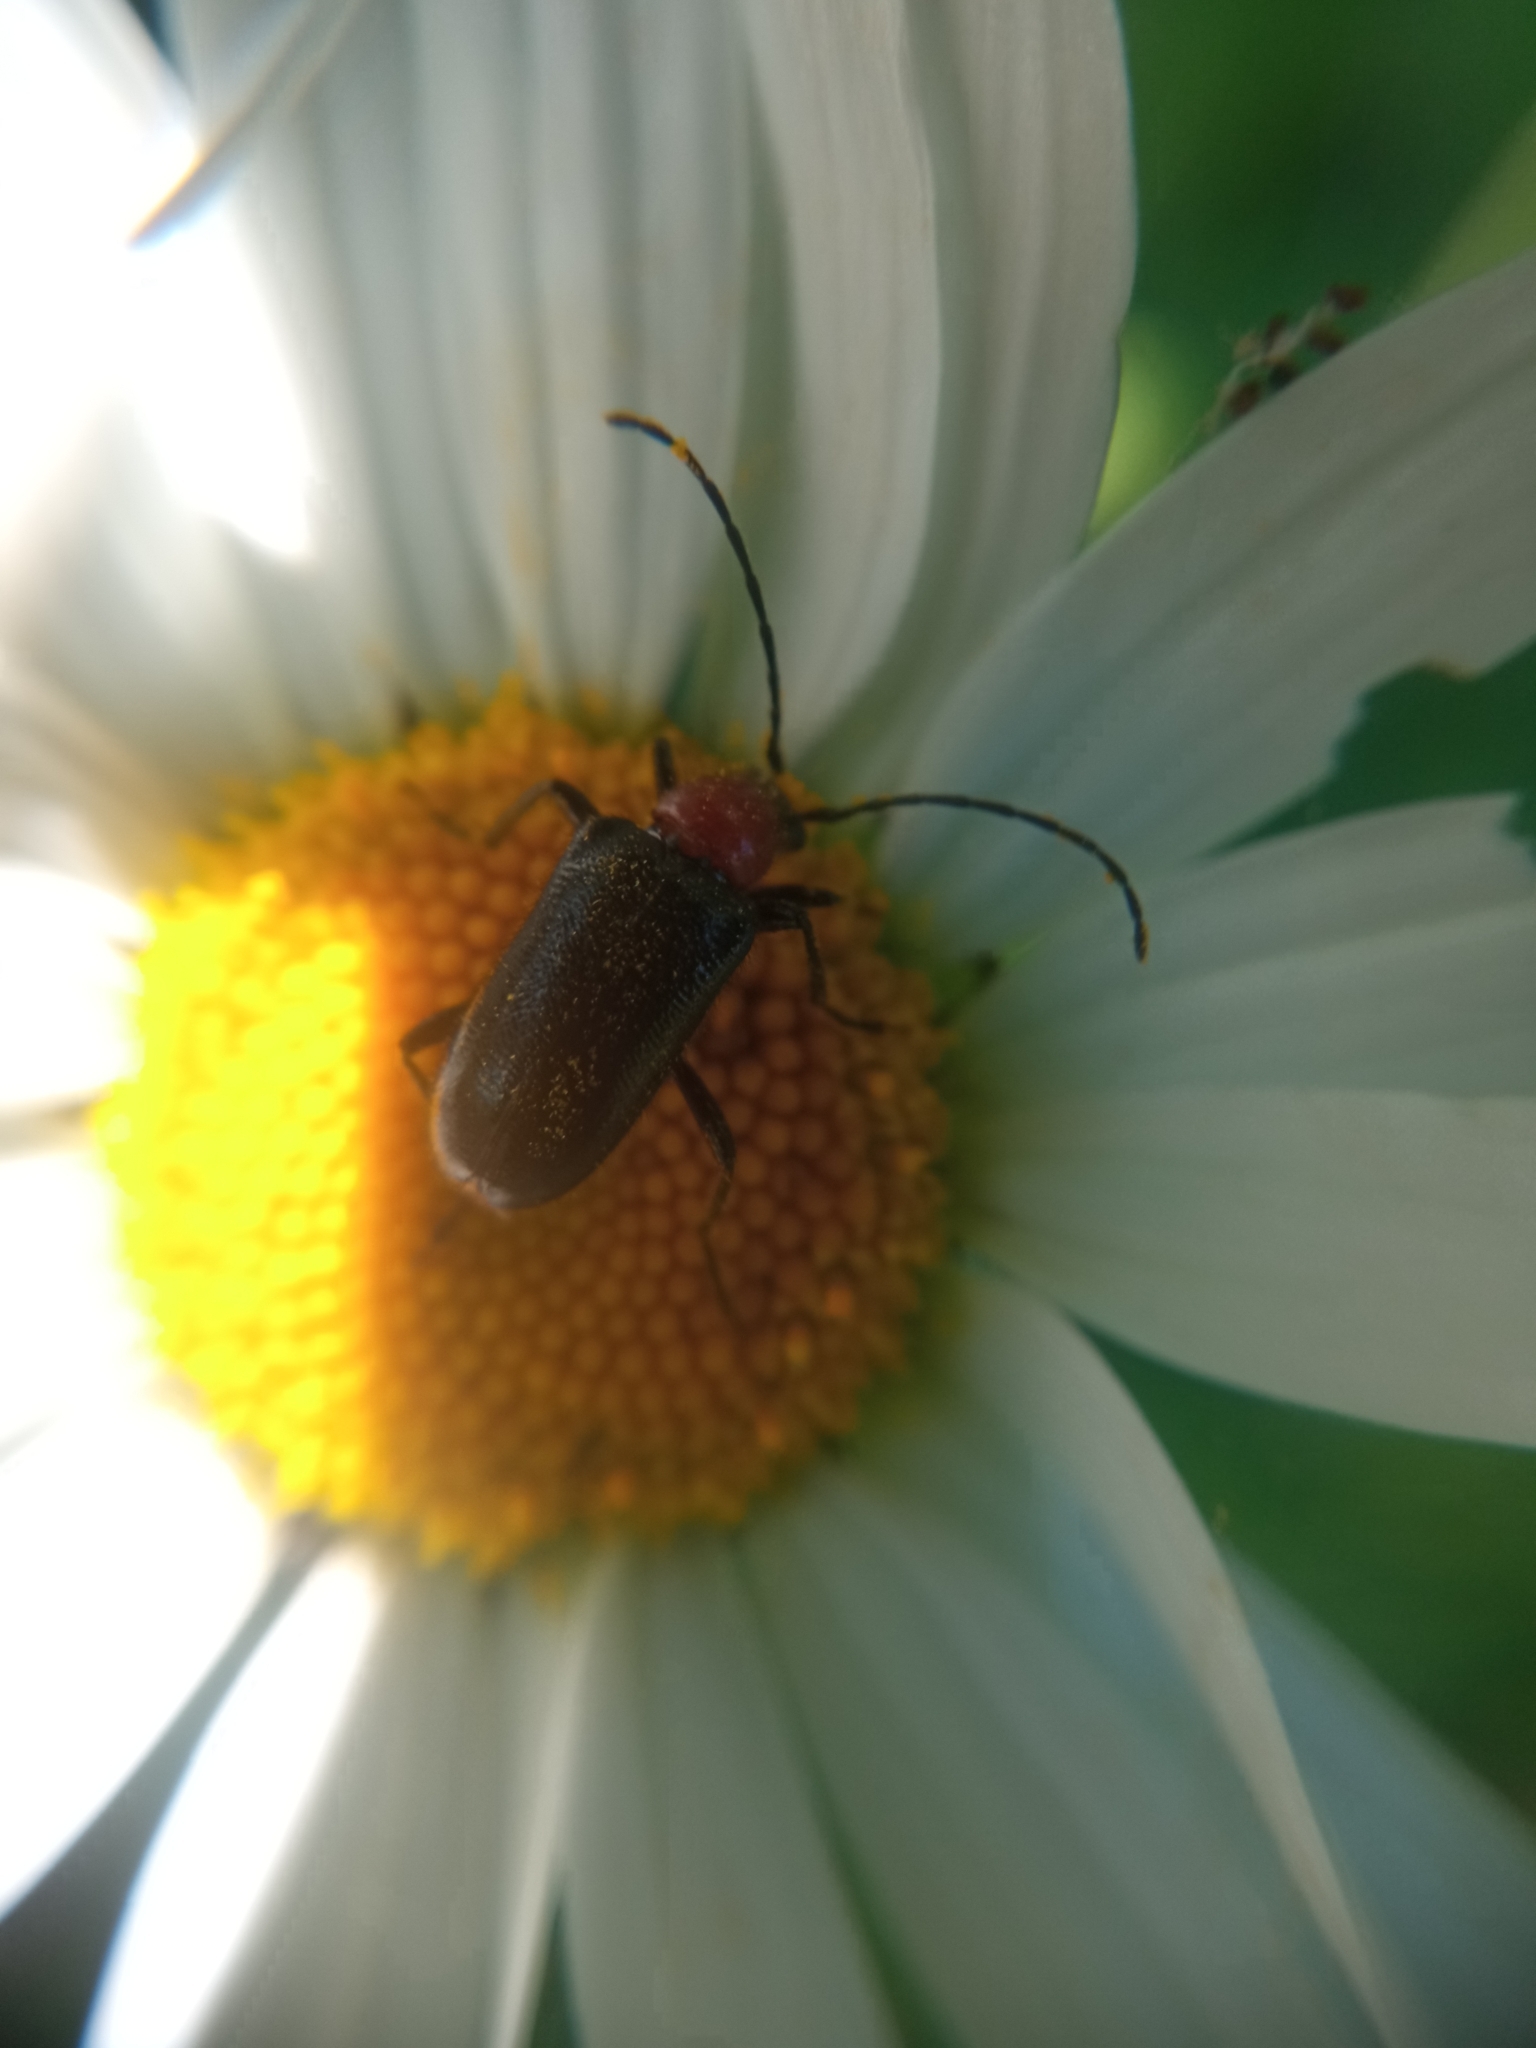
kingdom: Animalia
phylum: Arthropoda
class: Insecta
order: Coleoptera
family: Cerambycidae
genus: Dinoptera
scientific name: Dinoptera collaris
